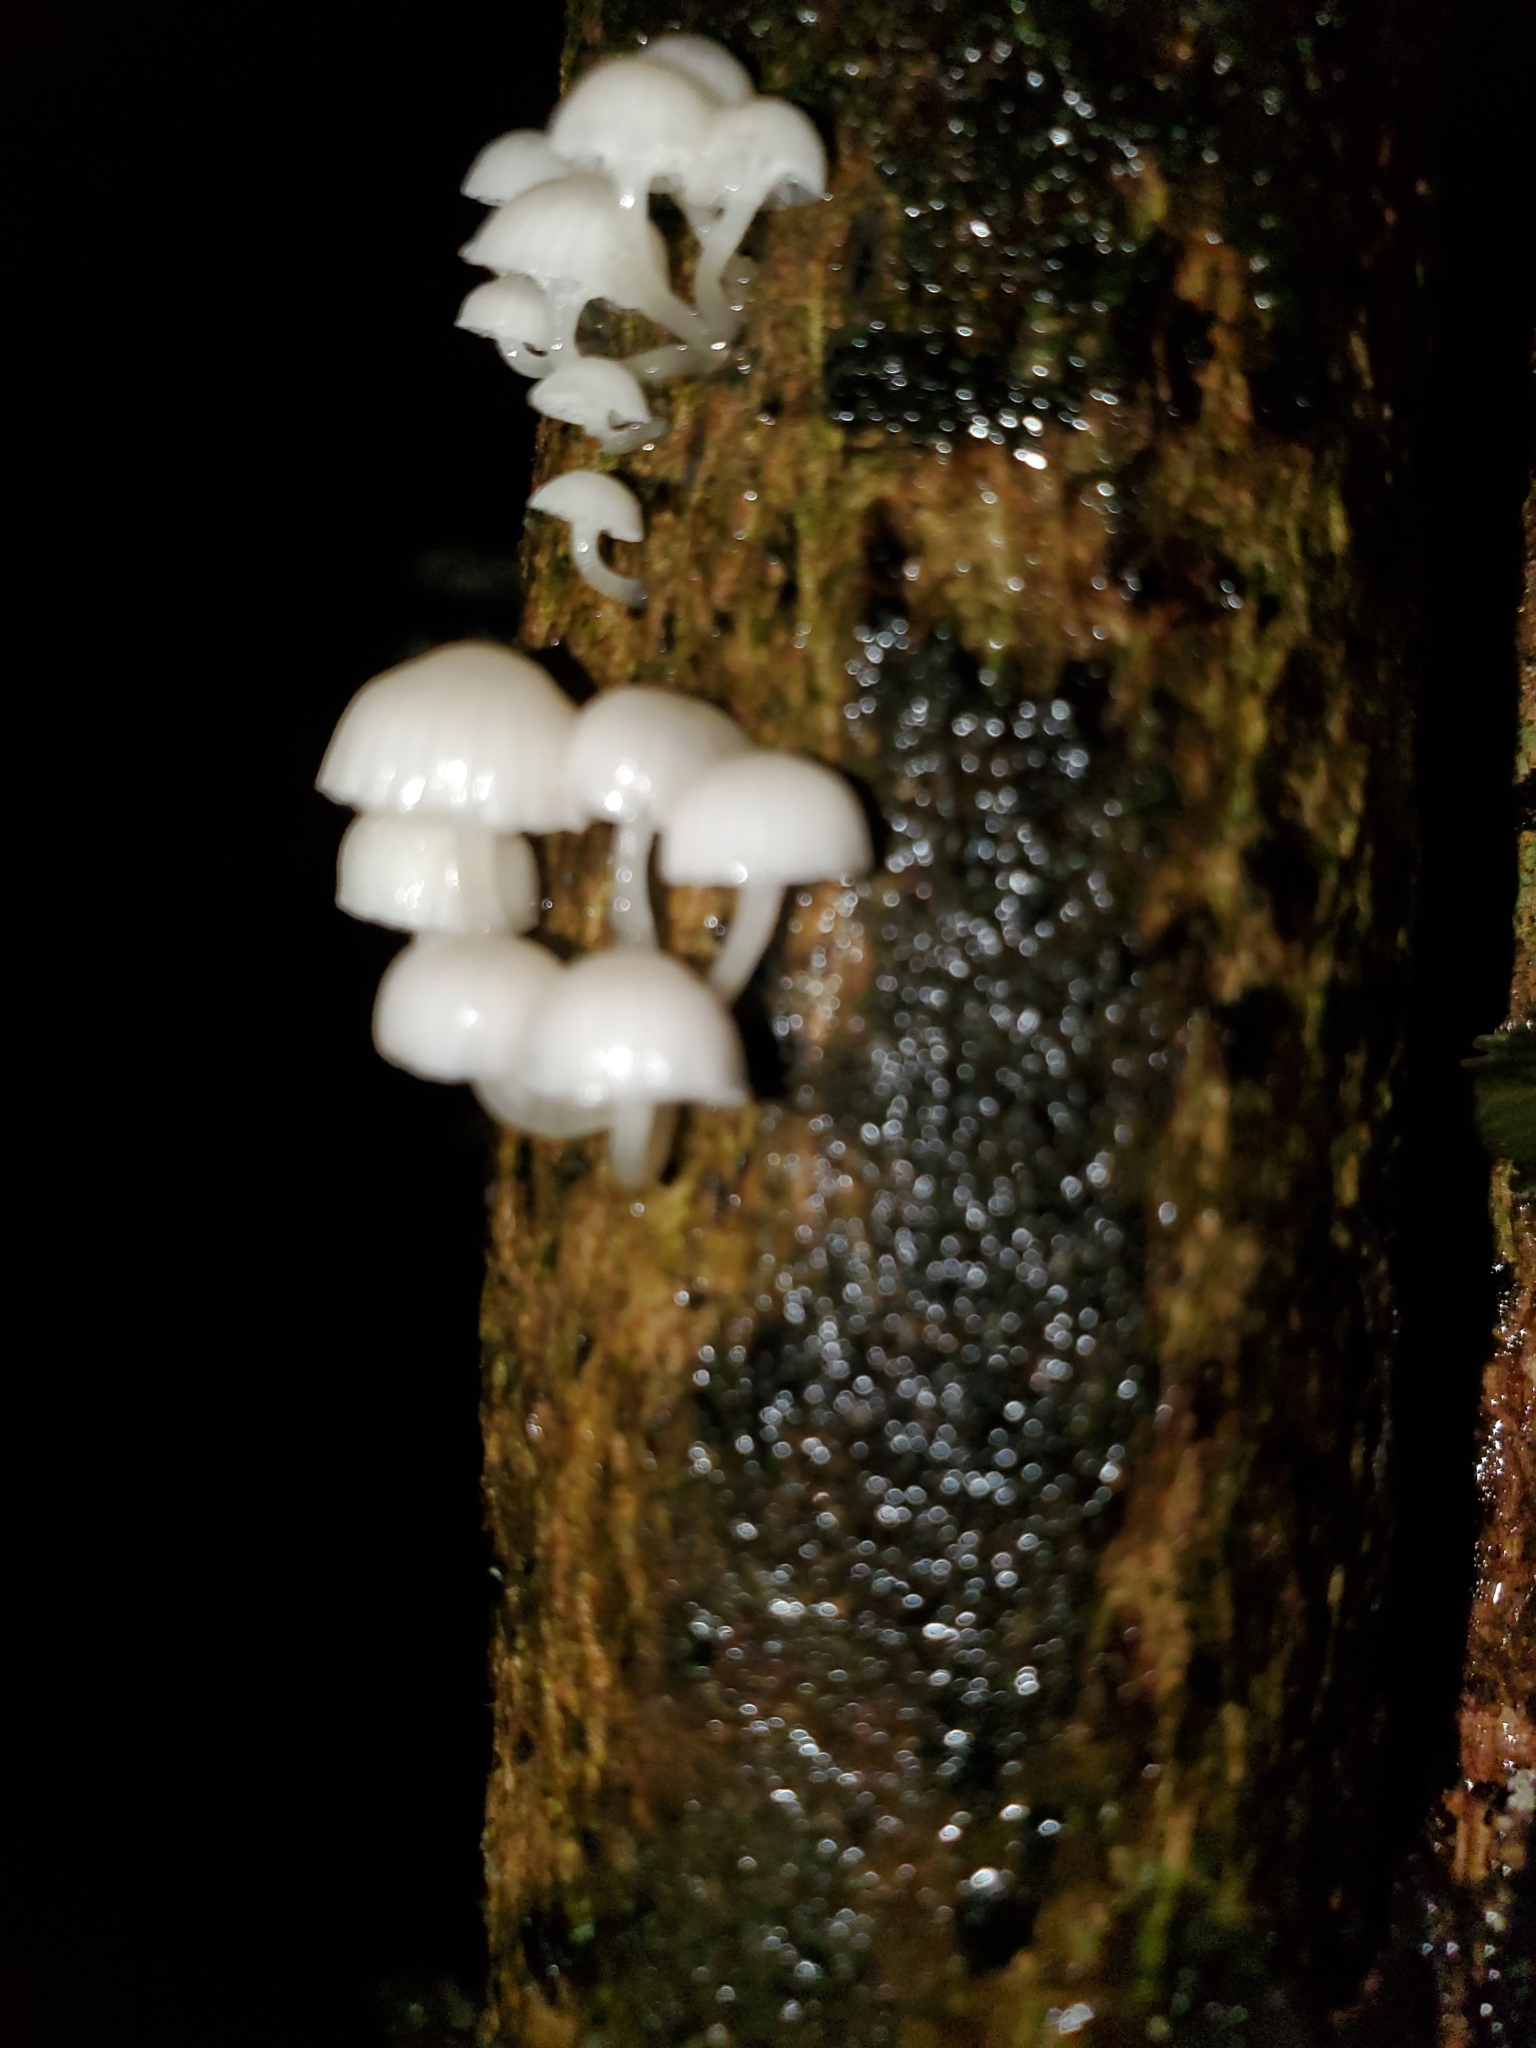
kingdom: Fungi
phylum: Basidiomycota
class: Agaricomycetes
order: Agaricales
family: Mycenaceae
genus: Roridomyces
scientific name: Roridomyces austrororidus
